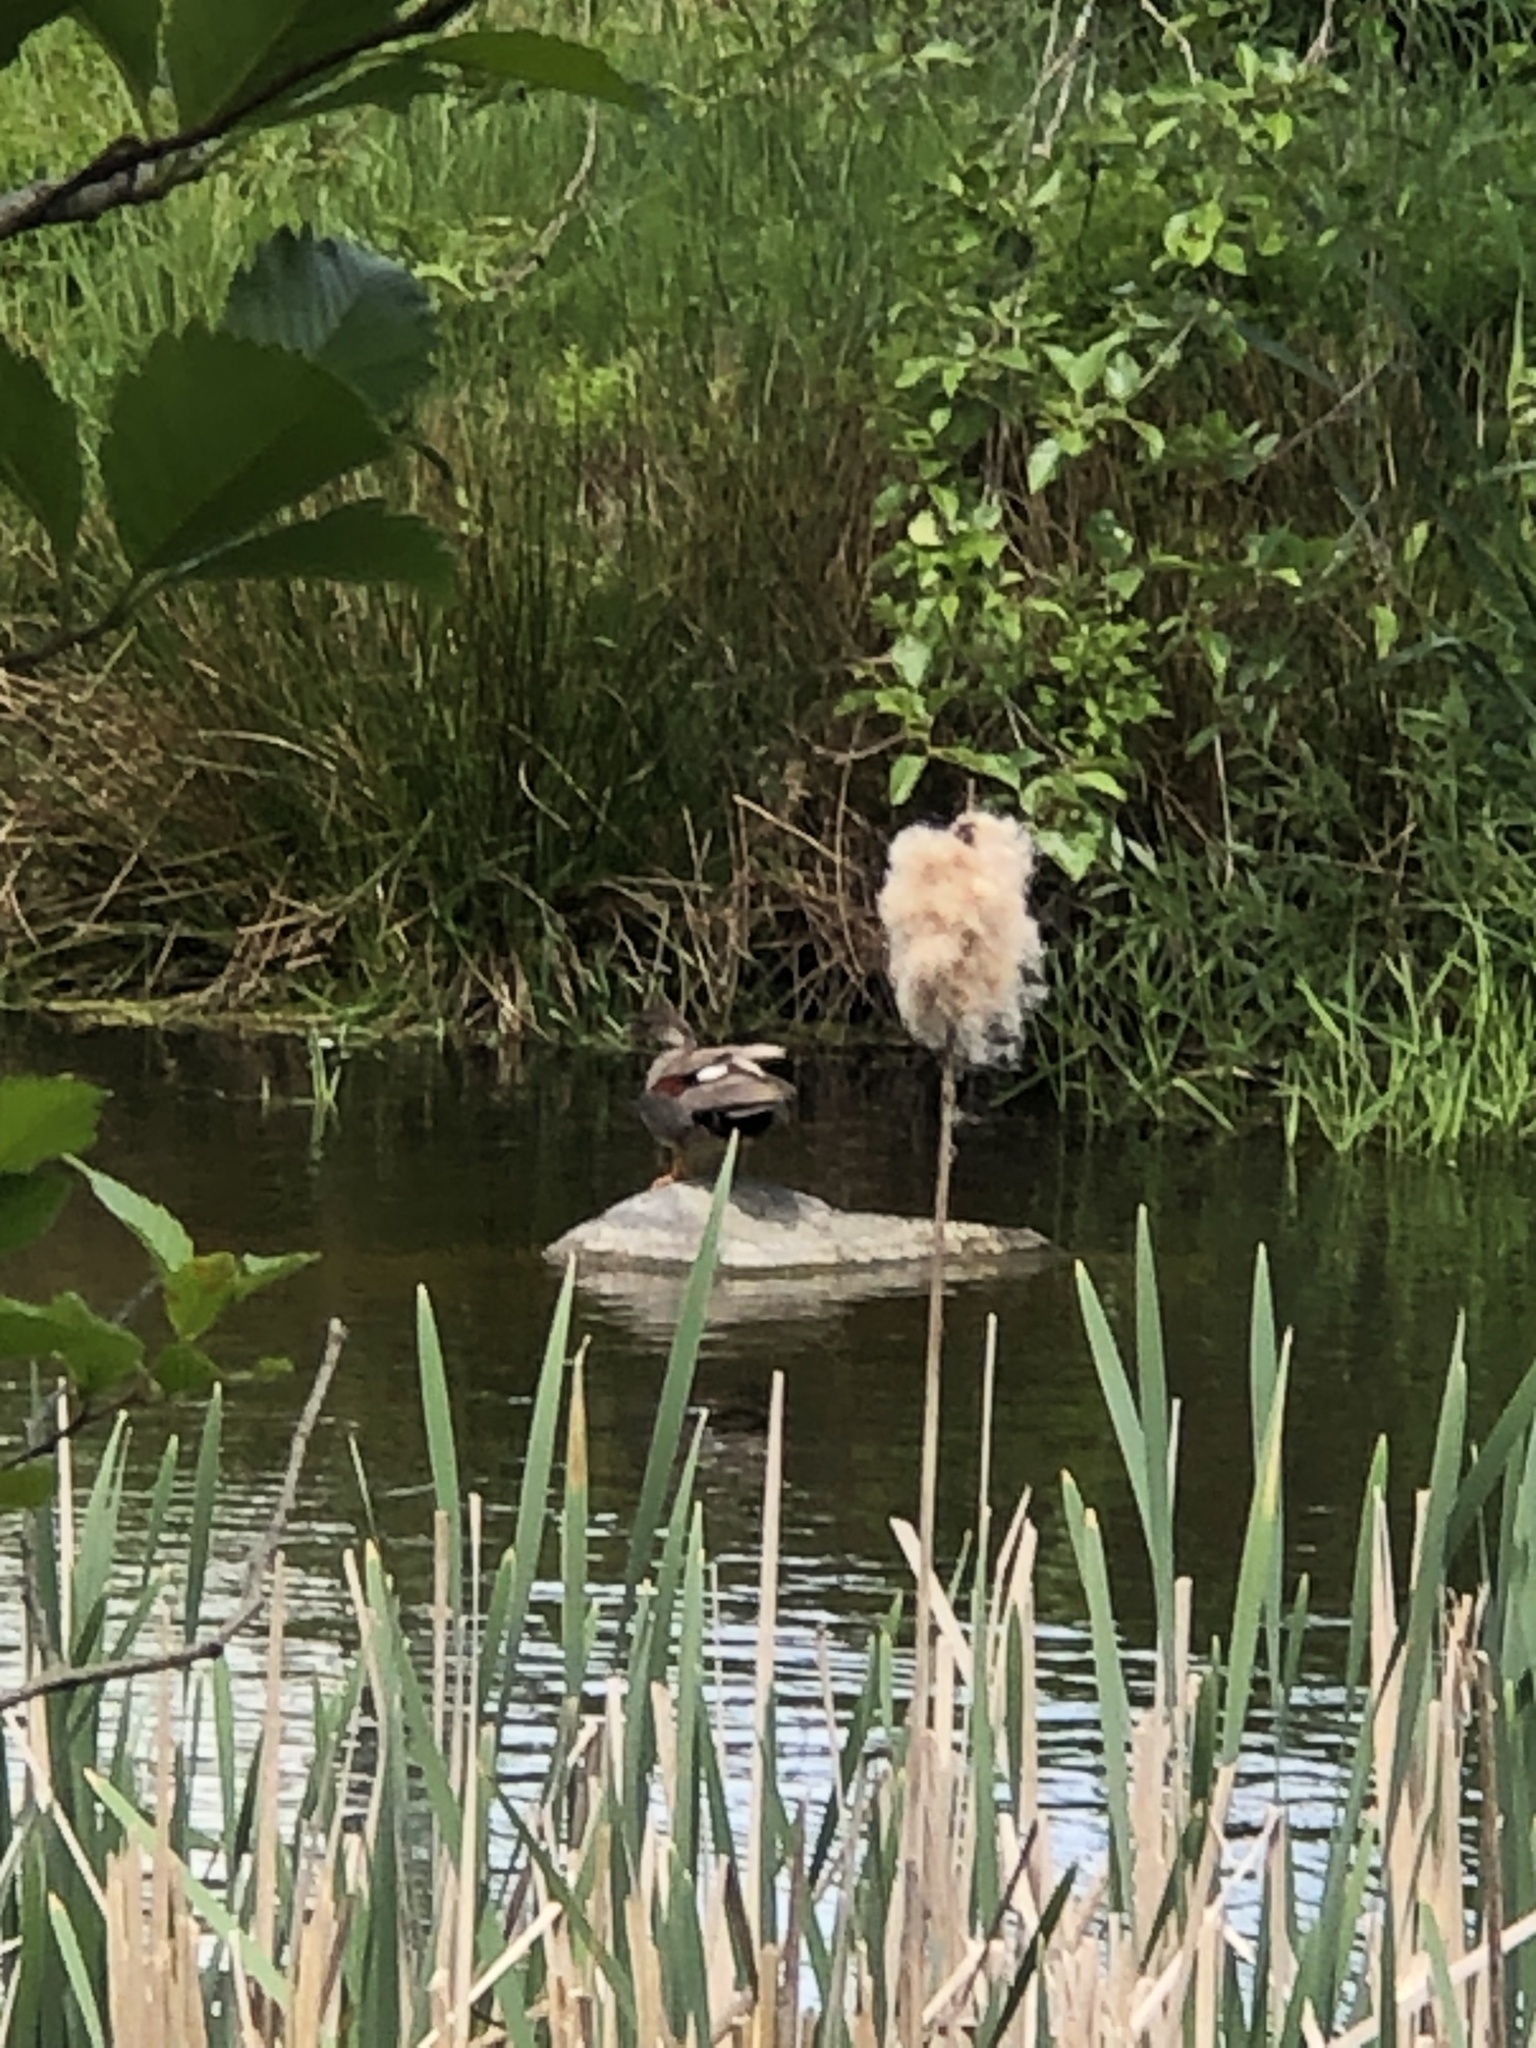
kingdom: Animalia
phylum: Chordata
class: Aves
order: Anseriformes
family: Anatidae
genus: Mareca
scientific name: Mareca strepera
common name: Gadwall
